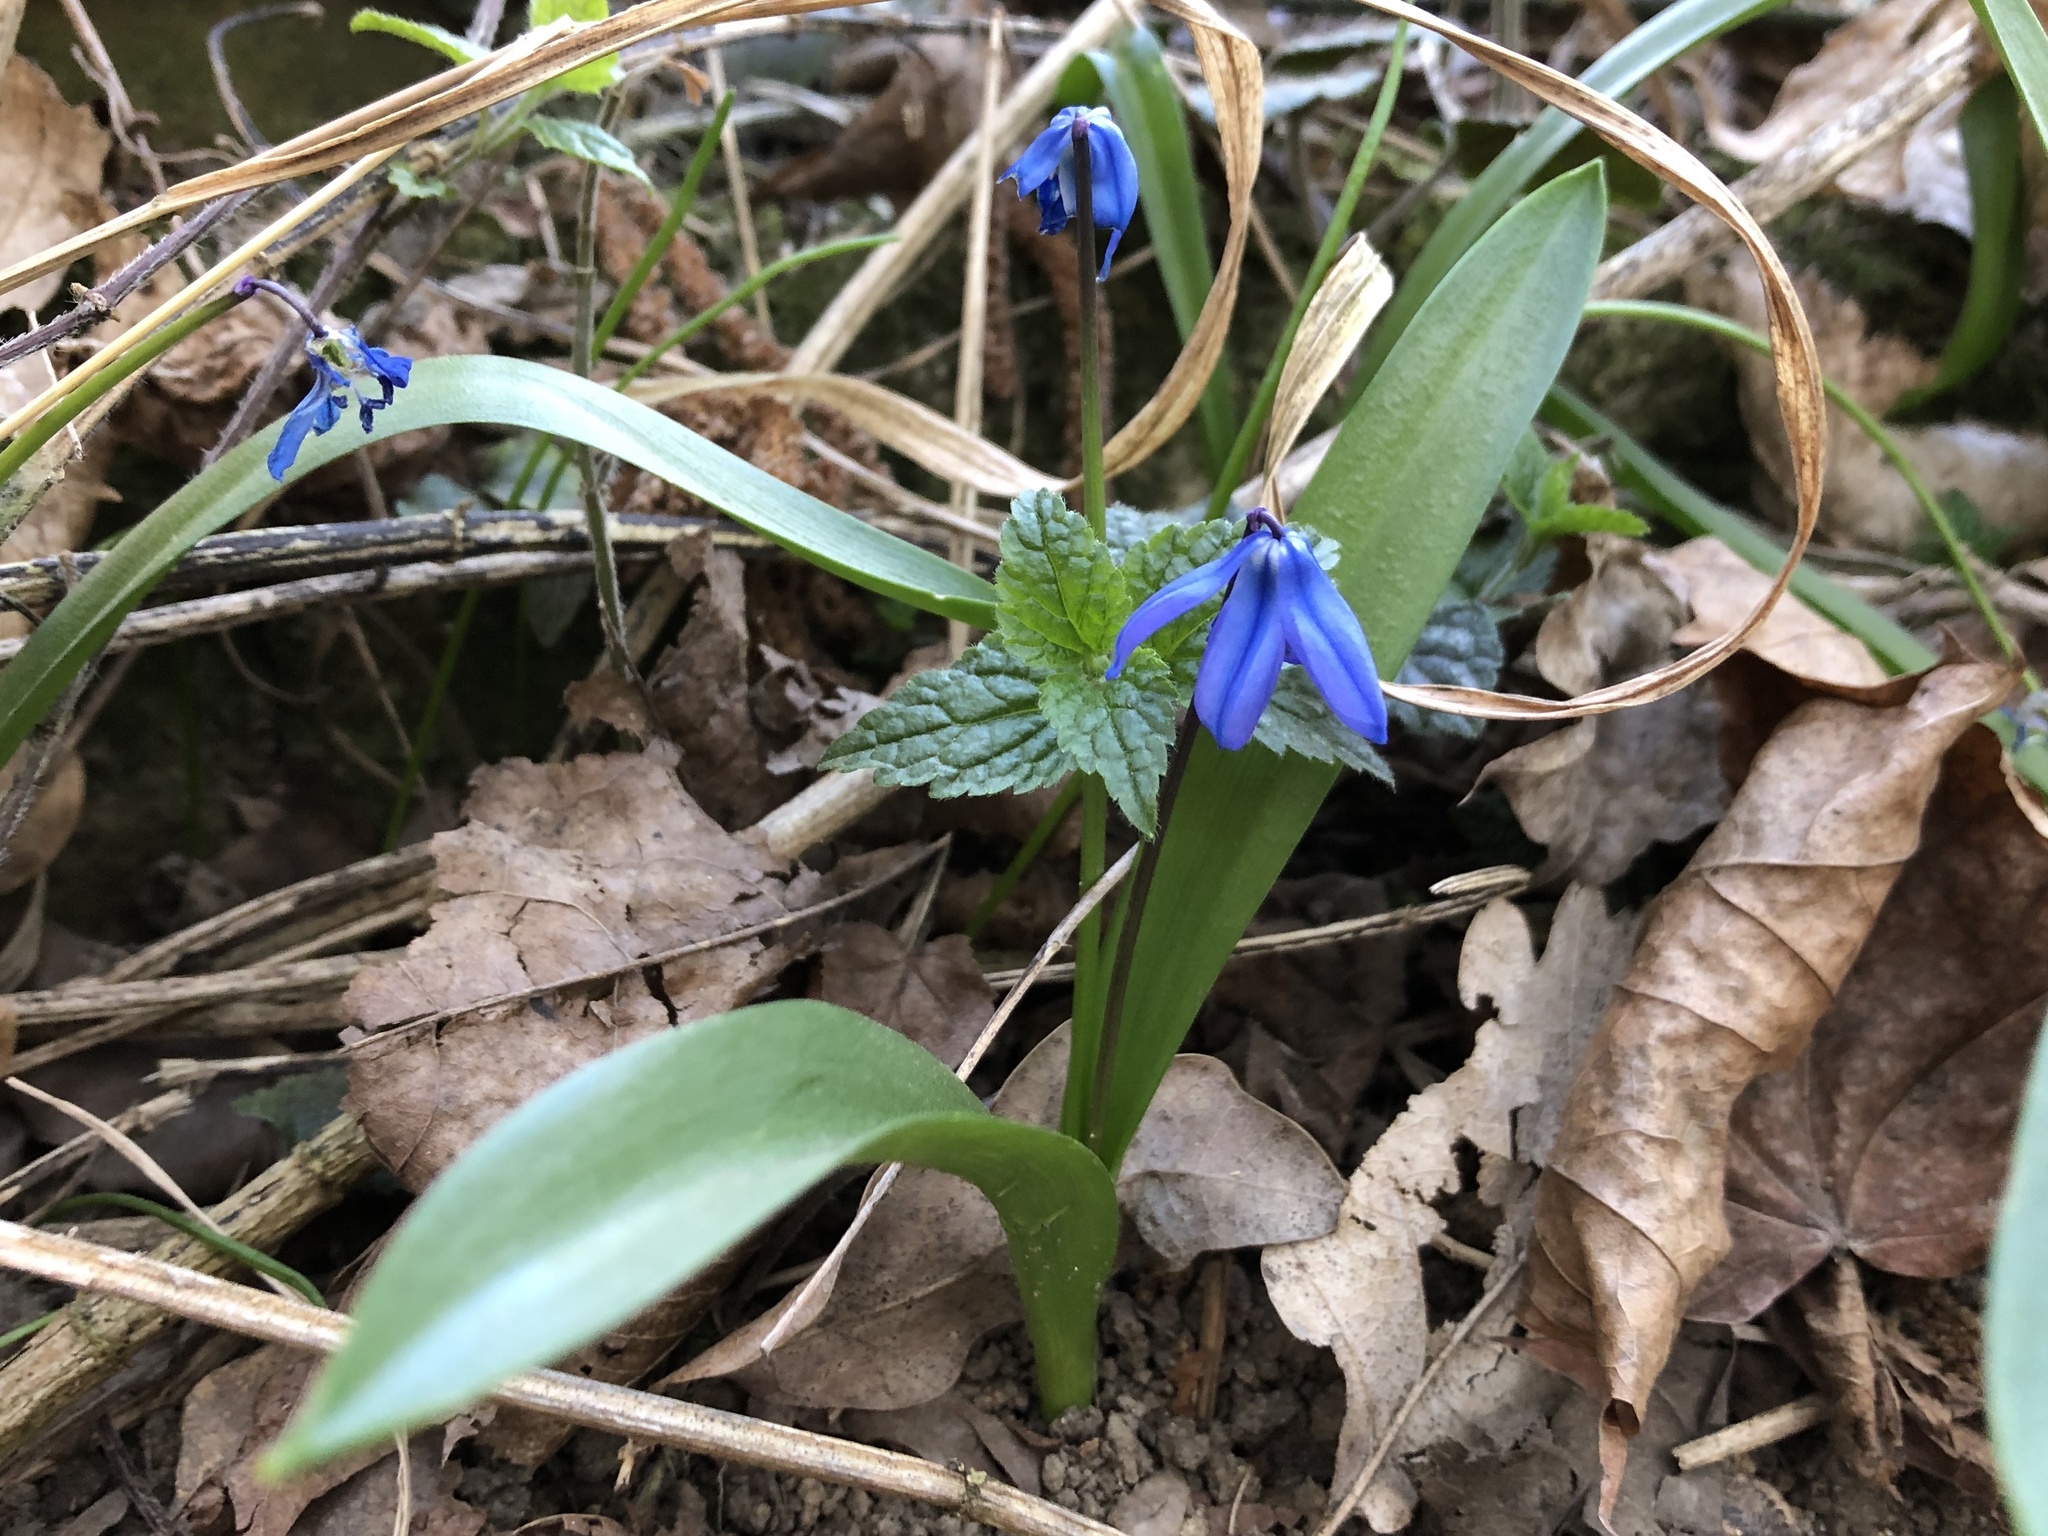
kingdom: Plantae
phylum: Tracheophyta
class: Liliopsida
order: Asparagales
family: Asparagaceae
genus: Scilla
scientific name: Scilla siberica
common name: Siberian squill
